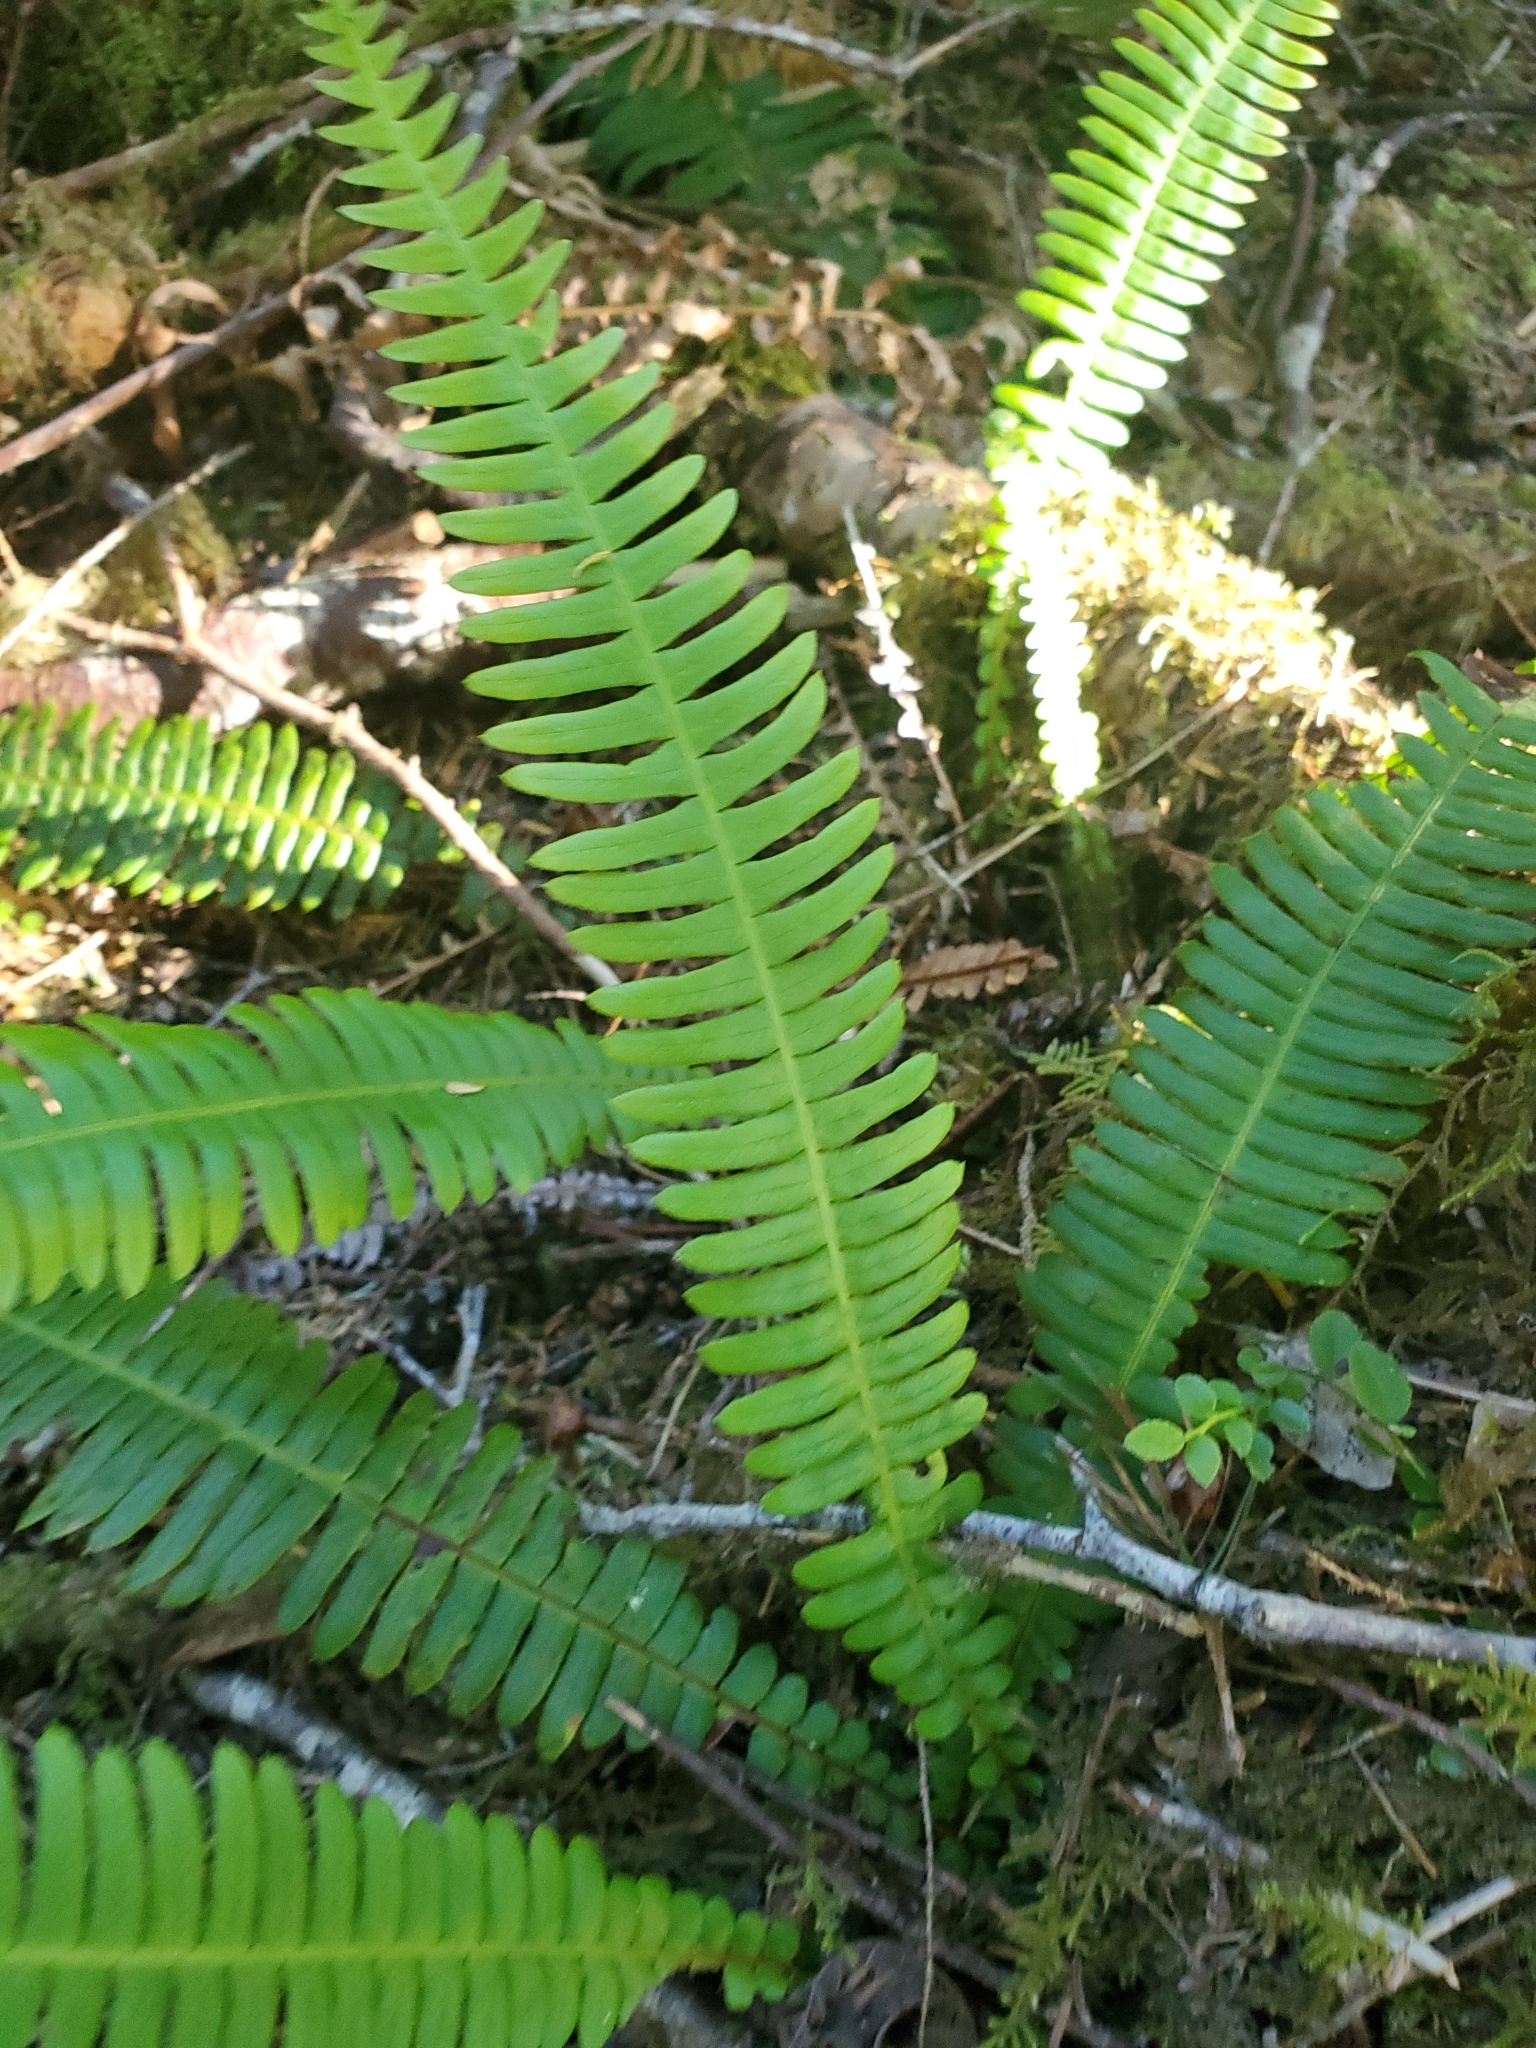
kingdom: Plantae
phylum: Tracheophyta
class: Polypodiopsida
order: Polypodiales
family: Blechnaceae
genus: Struthiopteris
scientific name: Struthiopteris spicant
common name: Deer fern
